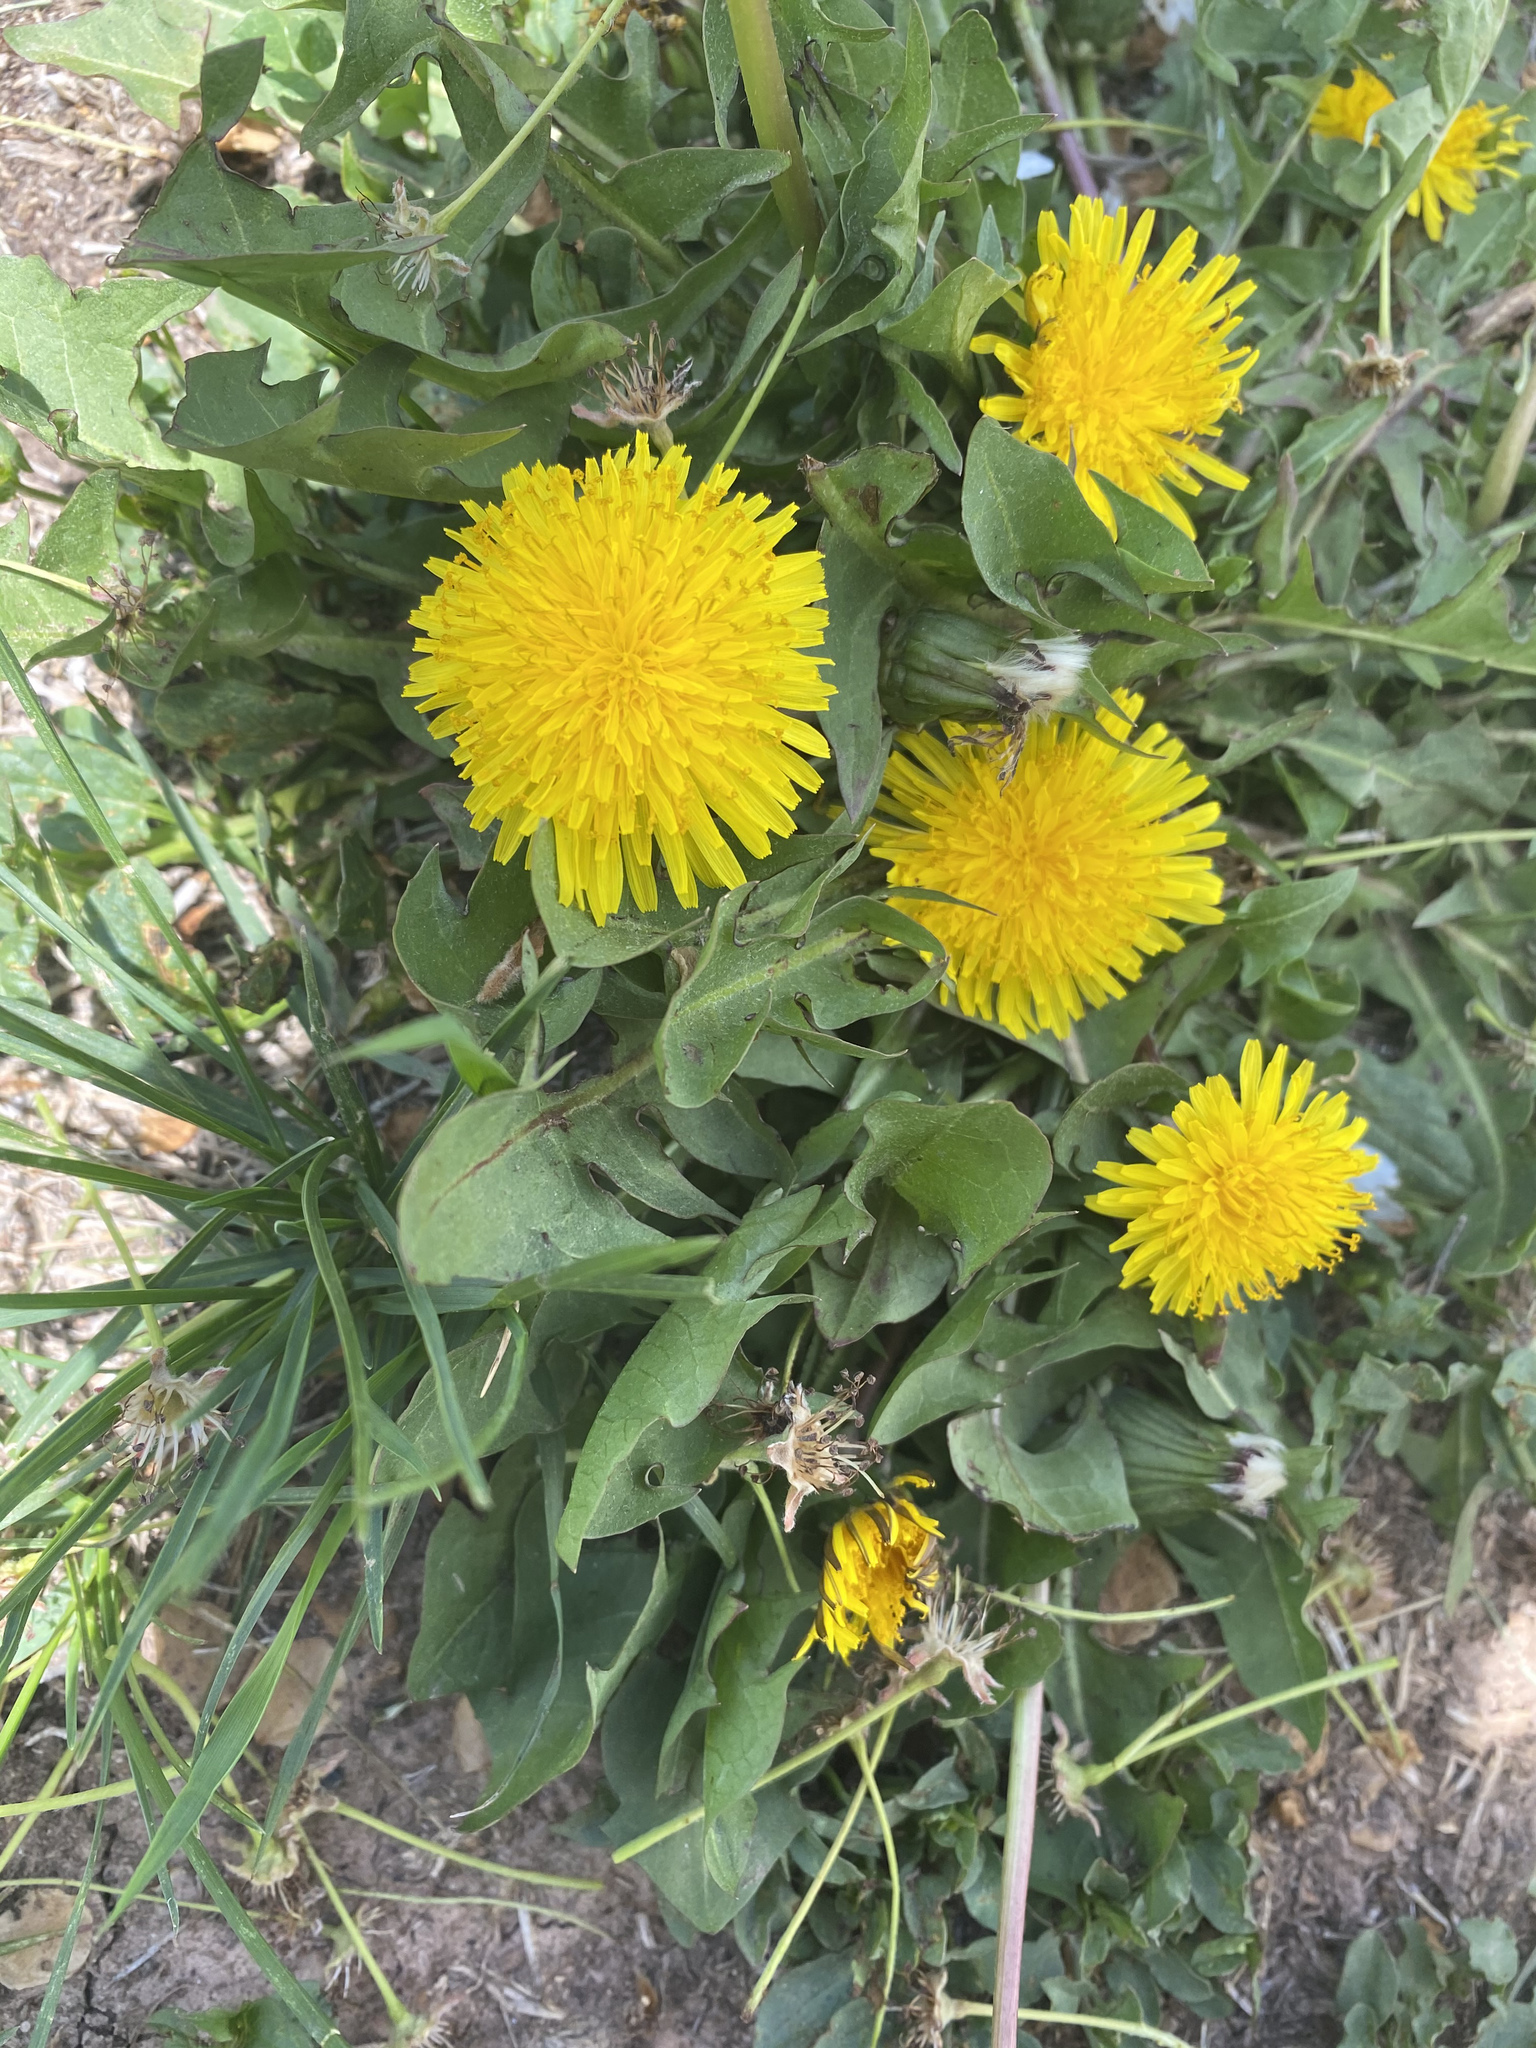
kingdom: Plantae
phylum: Tracheophyta
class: Magnoliopsida
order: Asterales
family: Asteraceae
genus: Taraxacum
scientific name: Taraxacum officinale
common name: Common dandelion
